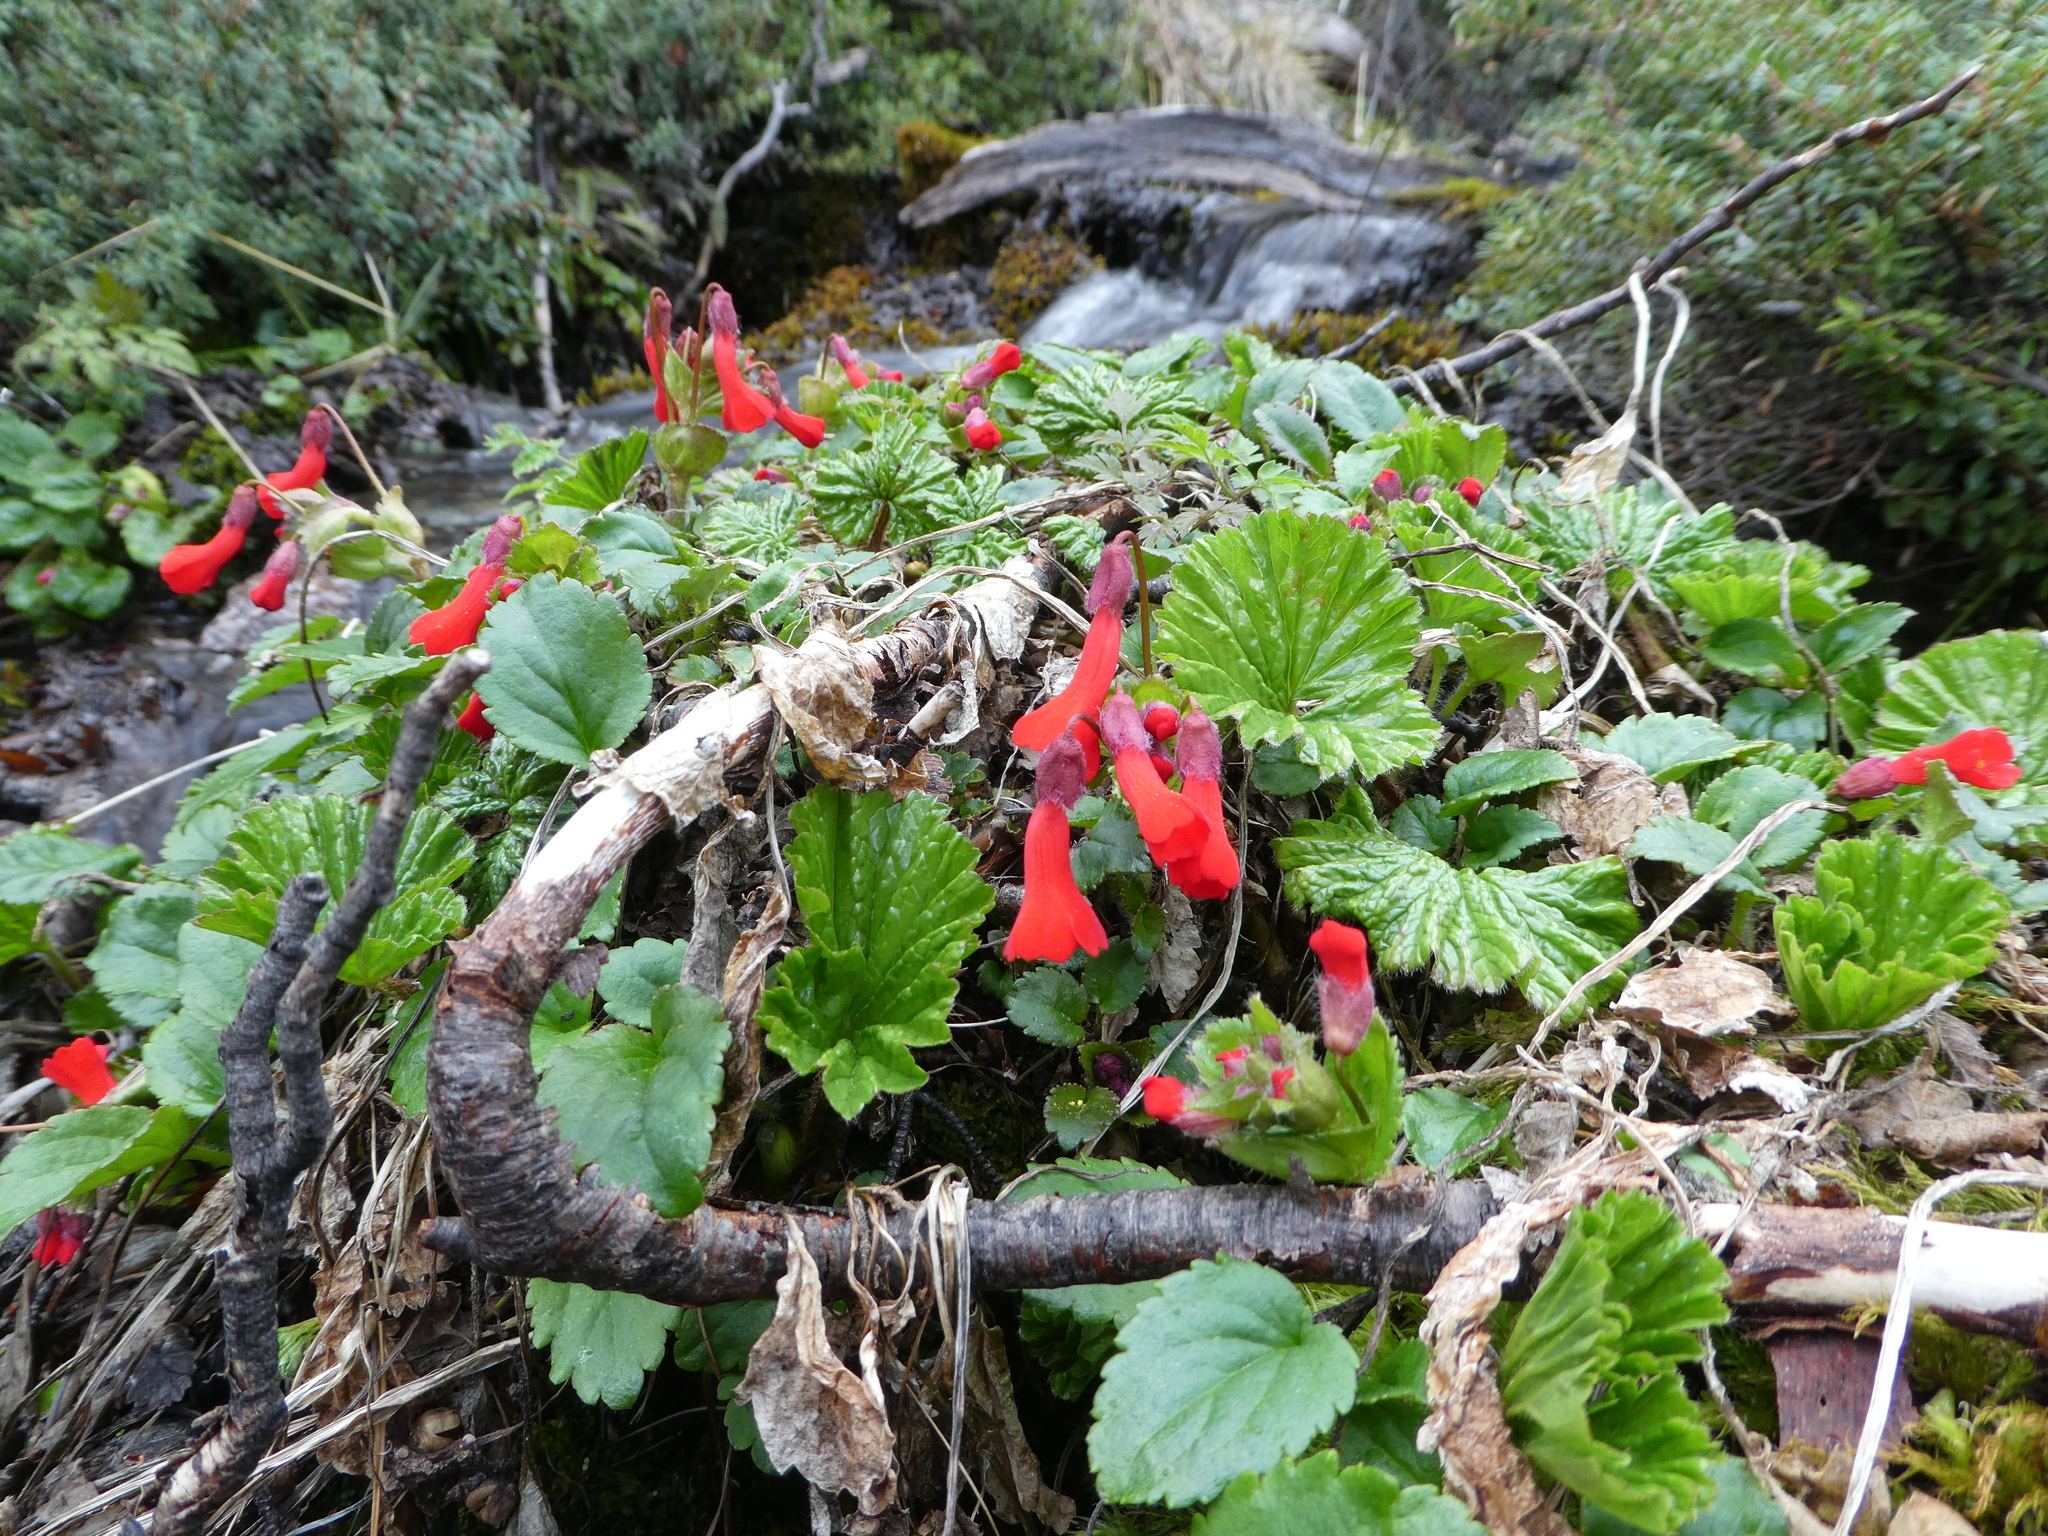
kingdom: Plantae
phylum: Tracheophyta
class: Magnoliopsida
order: Lamiales
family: Plantaginaceae
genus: Ourisia
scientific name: Ourisia ruellioides
